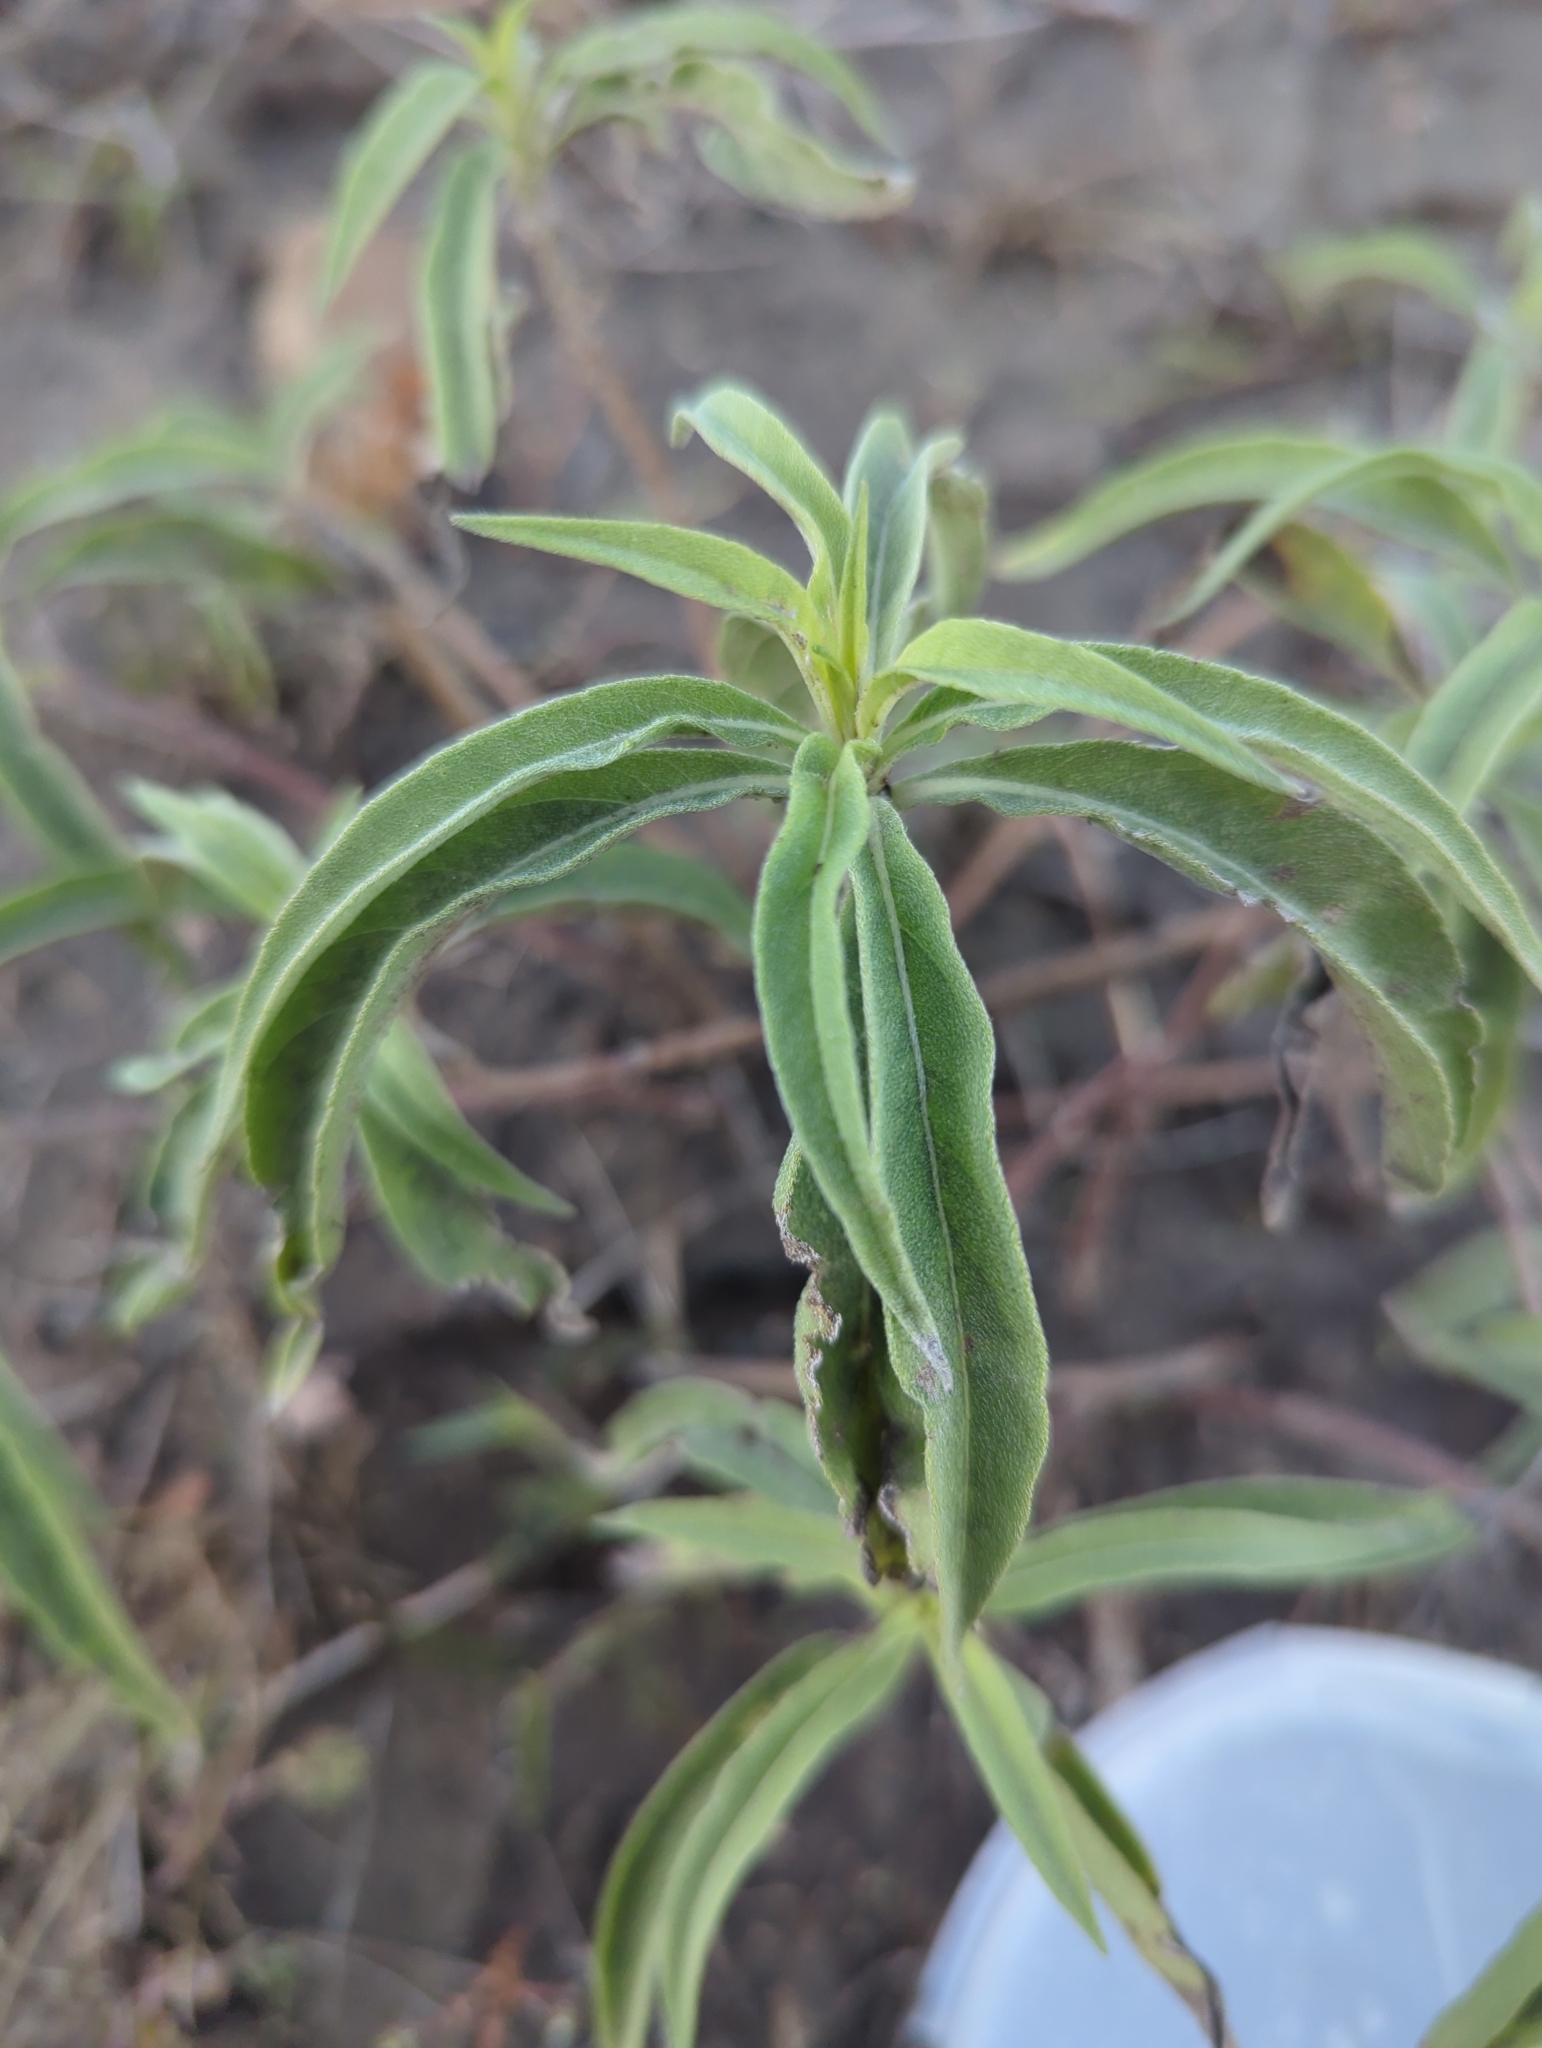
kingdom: Plantae
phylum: Tracheophyta
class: Magnoliopsida
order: Asterales
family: Asteraceae
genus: Helianthus
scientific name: Helianthus maximiliani
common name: Maximilian's sunflower
